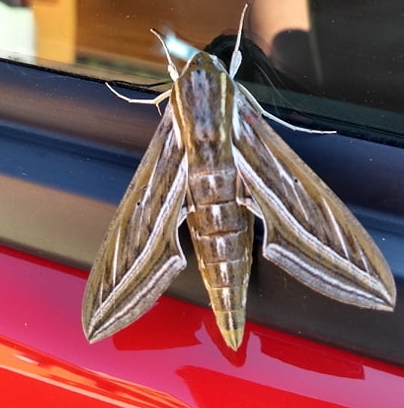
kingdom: Animalia
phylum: Arthropoda
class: Insecta
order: Lepidoptera
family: Sphingidae
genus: Hippotion
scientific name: Hippotion celerio
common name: Silver-striped hawk-moth
